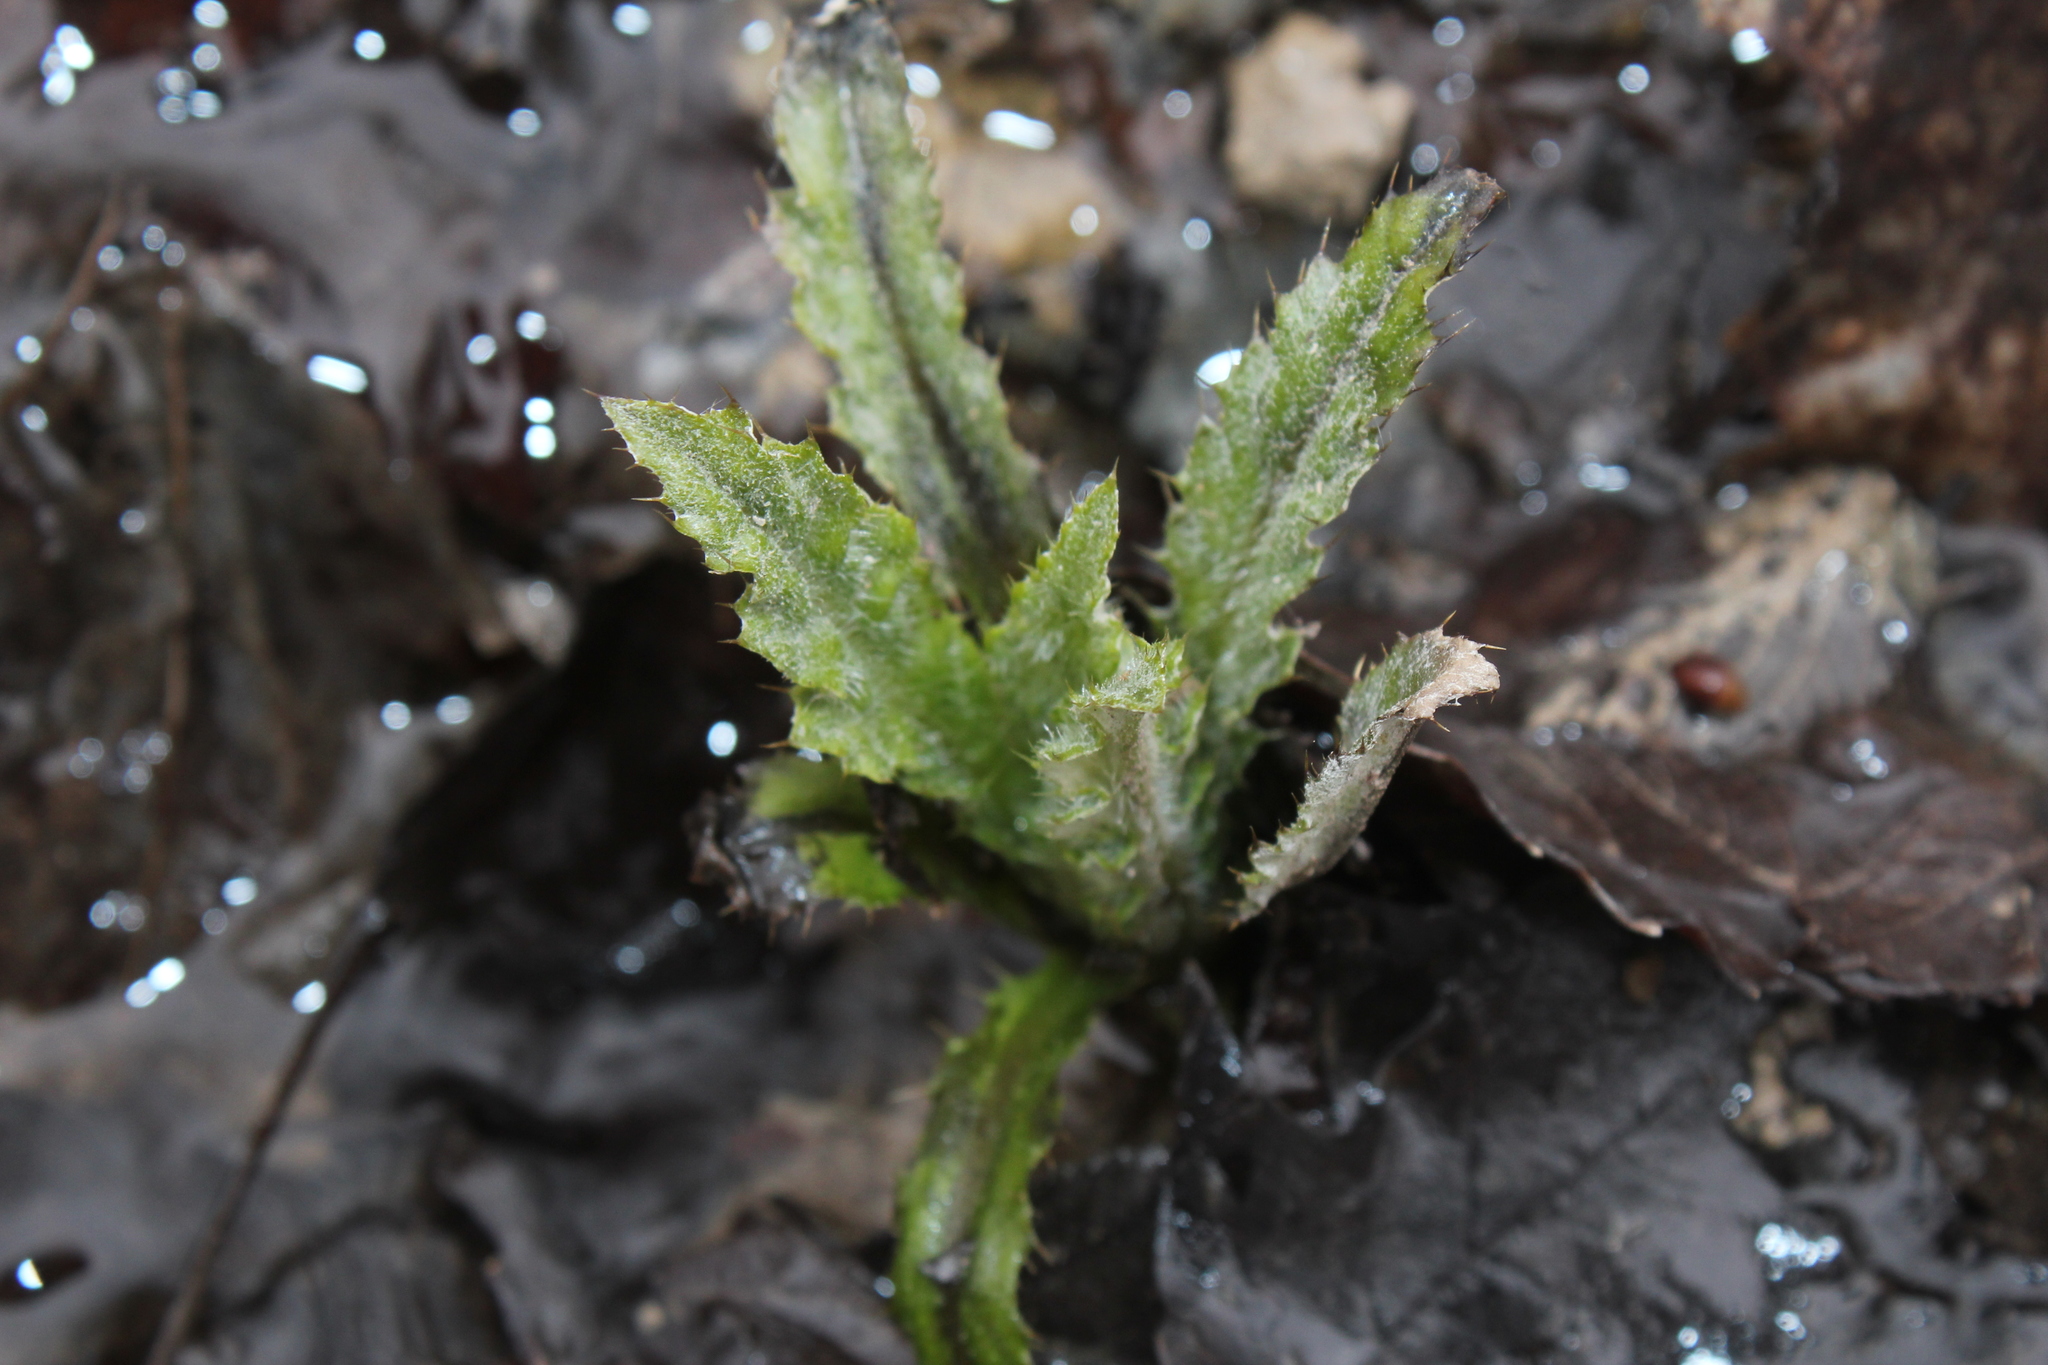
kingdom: Plantae
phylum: Tracheophyta
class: Magnoliopsida
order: Asterales
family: Asteraceae
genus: Cirsium
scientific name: Cirsium arvense
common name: Creeping thistle
